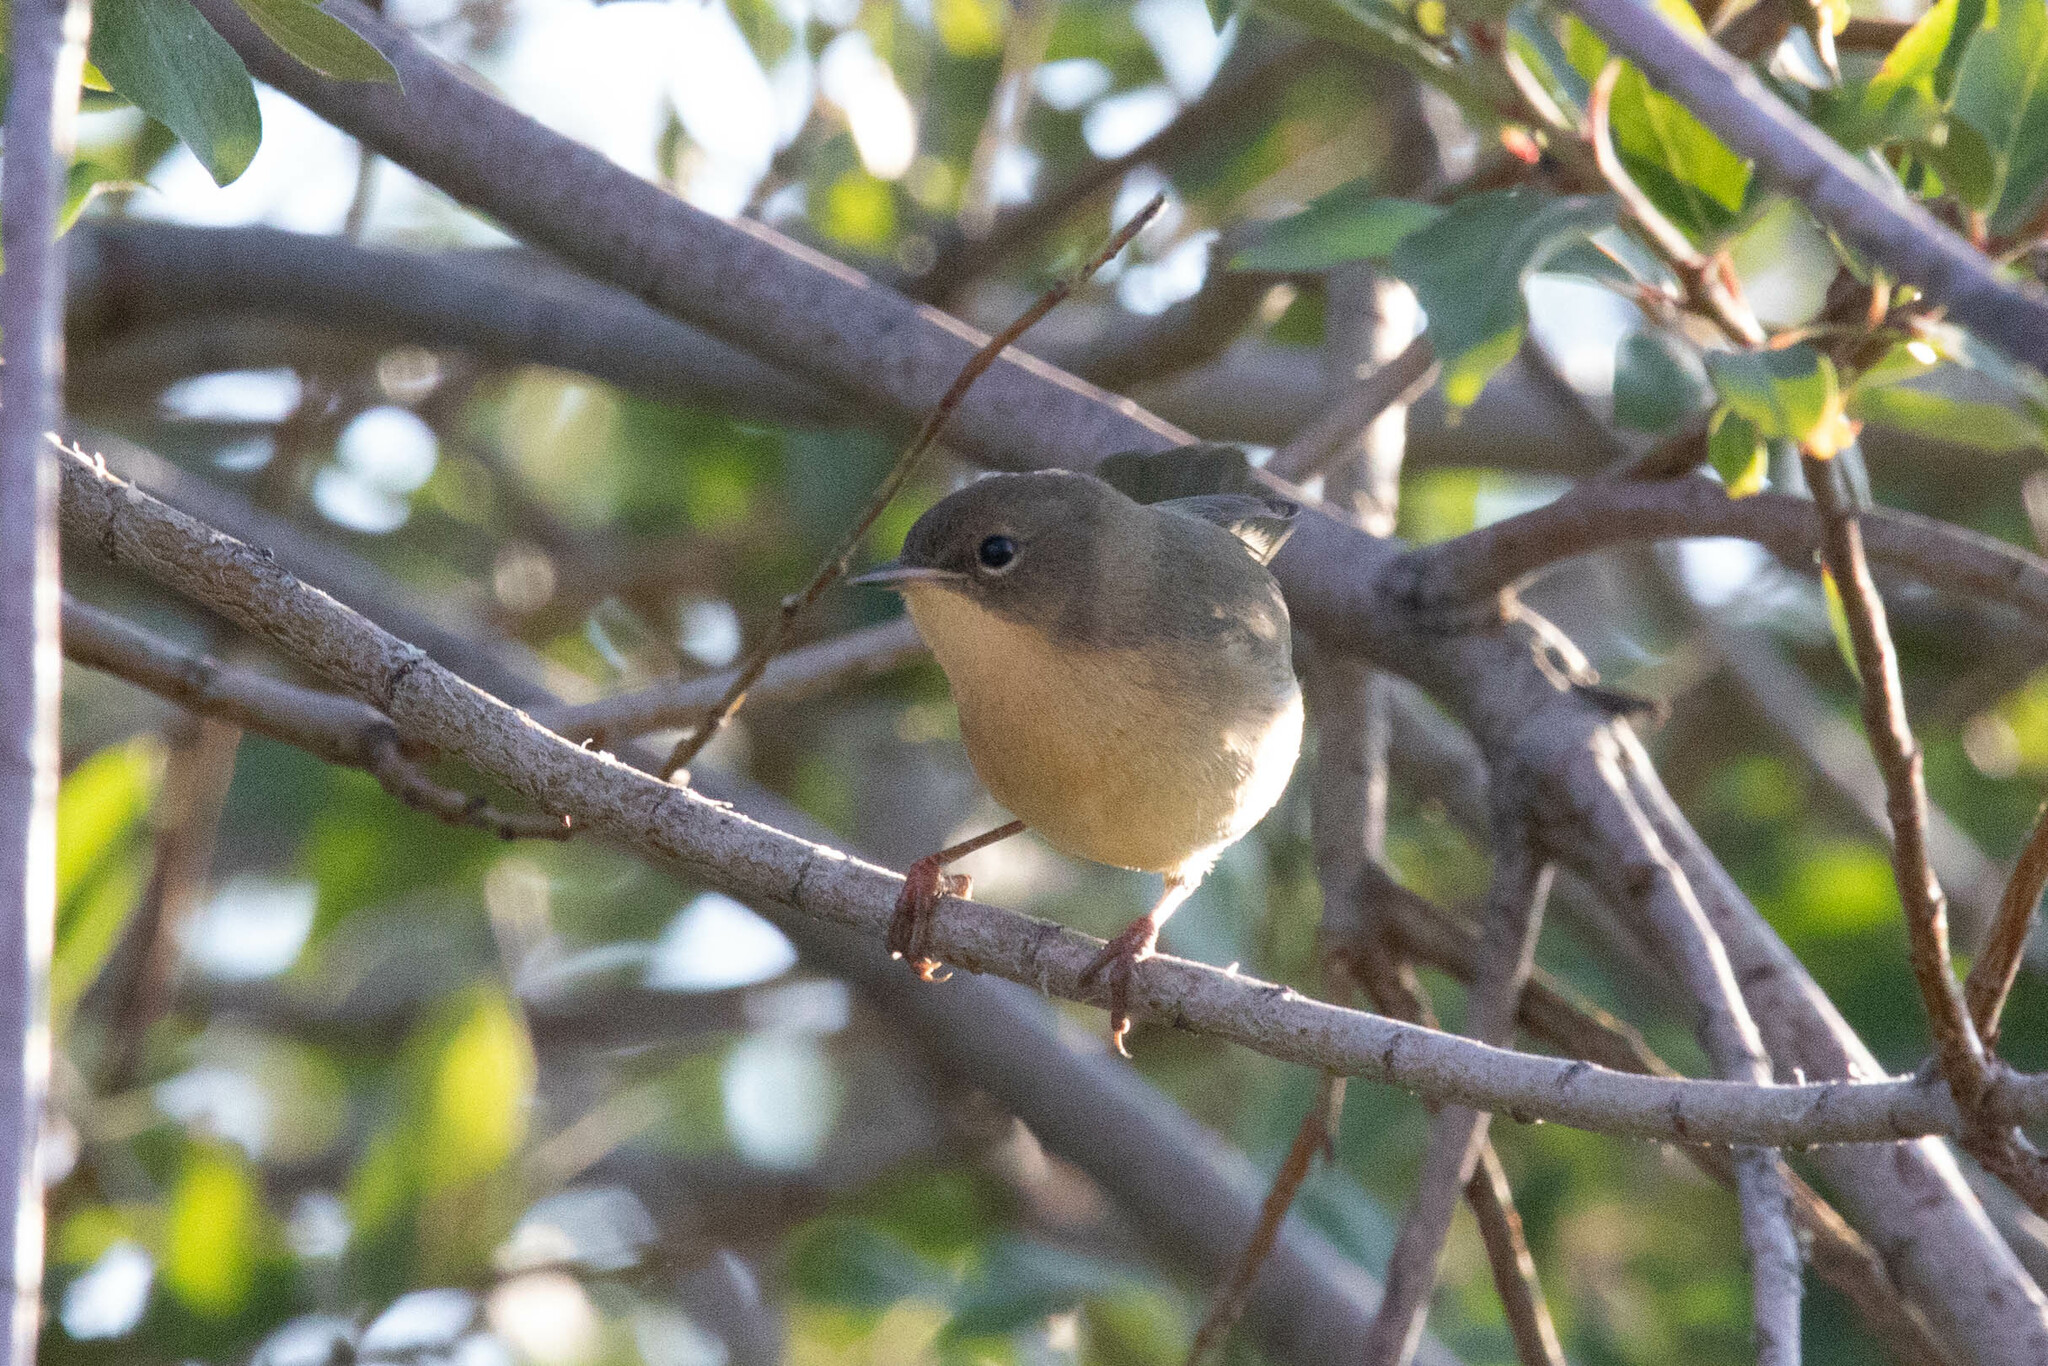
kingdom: Animalia
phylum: Chordata
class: Aves
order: Passeriformes
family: Parulidae
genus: Geothlypis
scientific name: Geothlypis trichas
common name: Common yellowthroat
